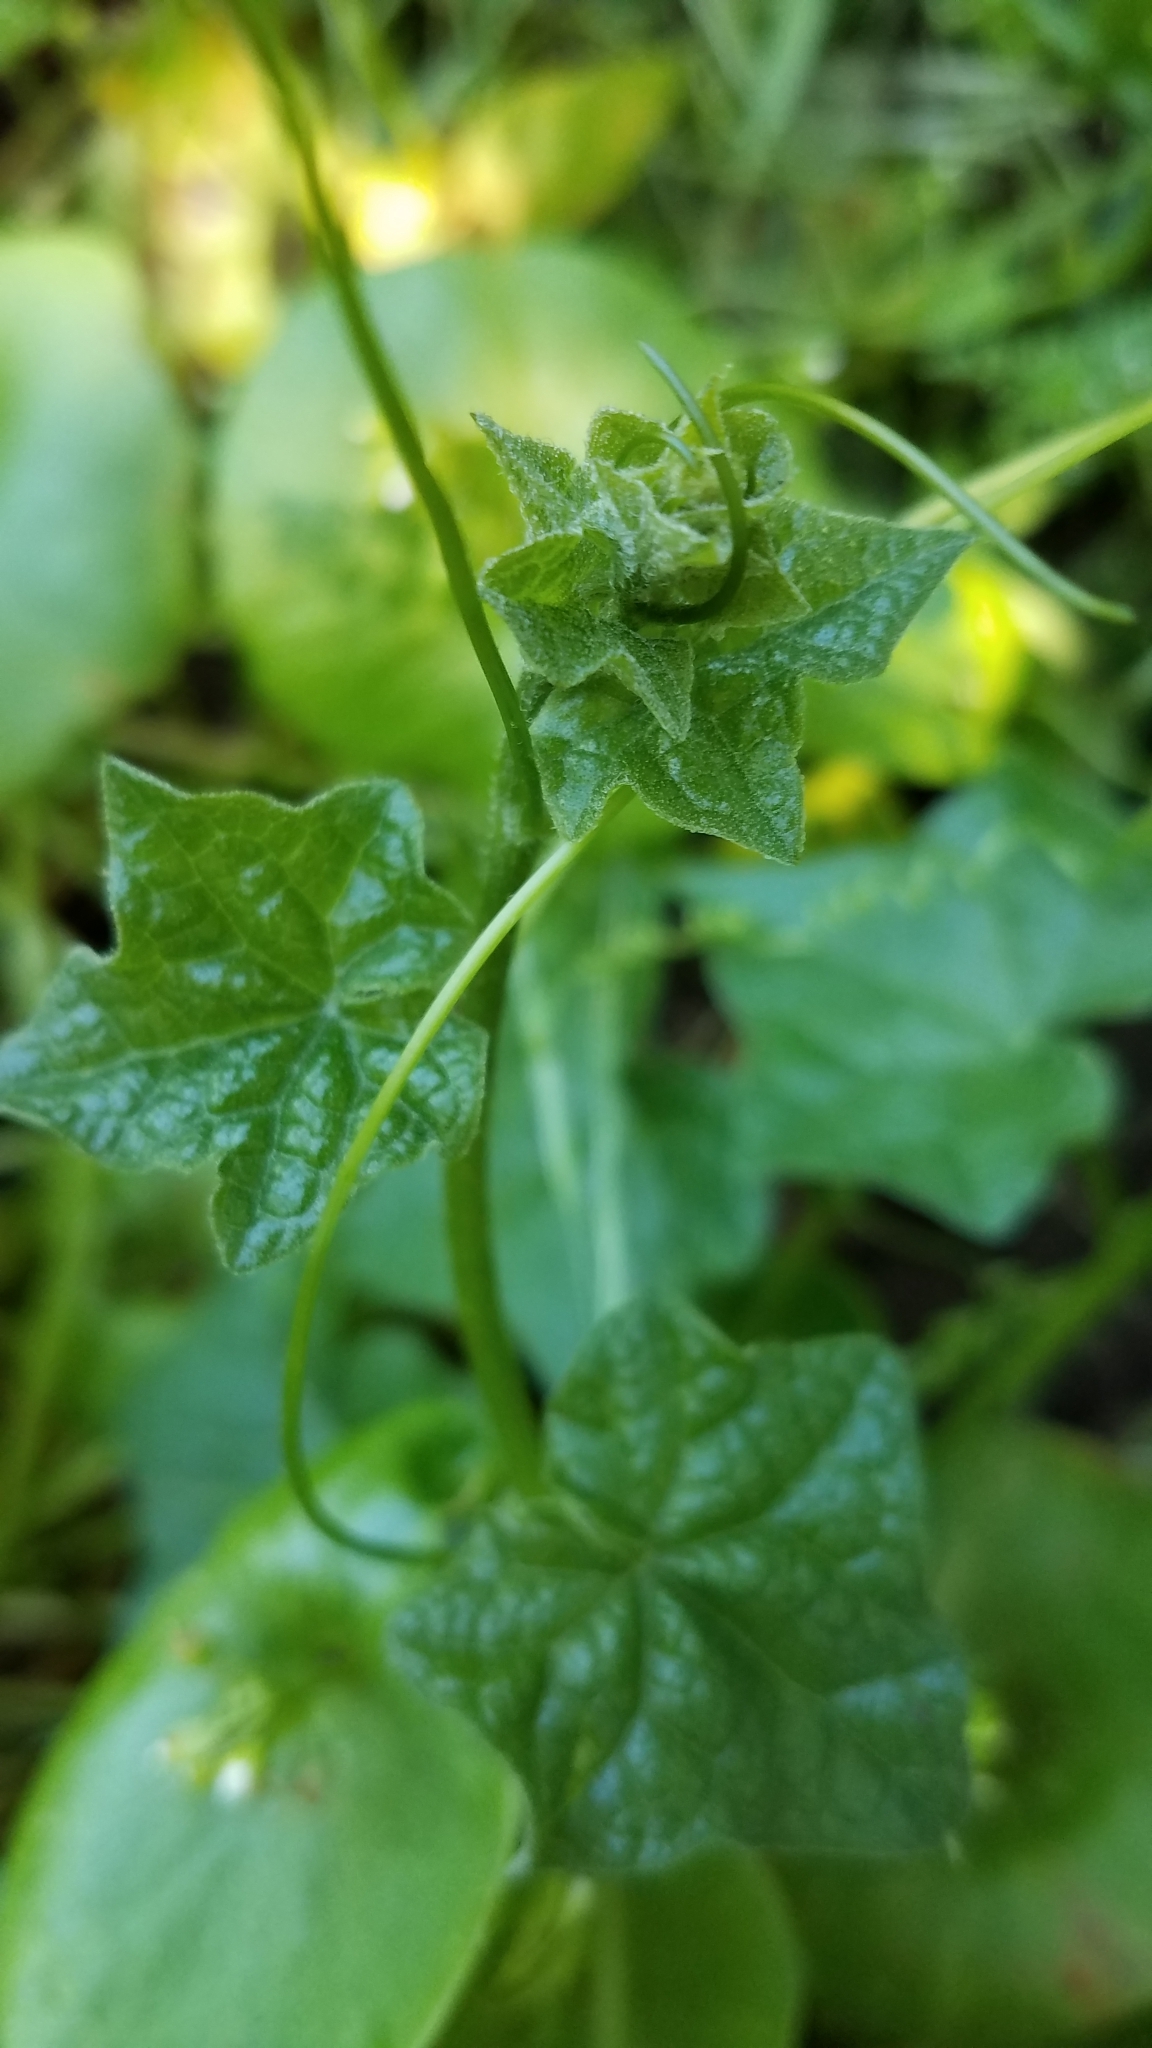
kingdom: Plantae
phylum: Tracheophyta
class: Magnoliopsida
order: Cucurbitales
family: Cucurbitaceae
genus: Marah
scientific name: Marah fabacea
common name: California manroot
